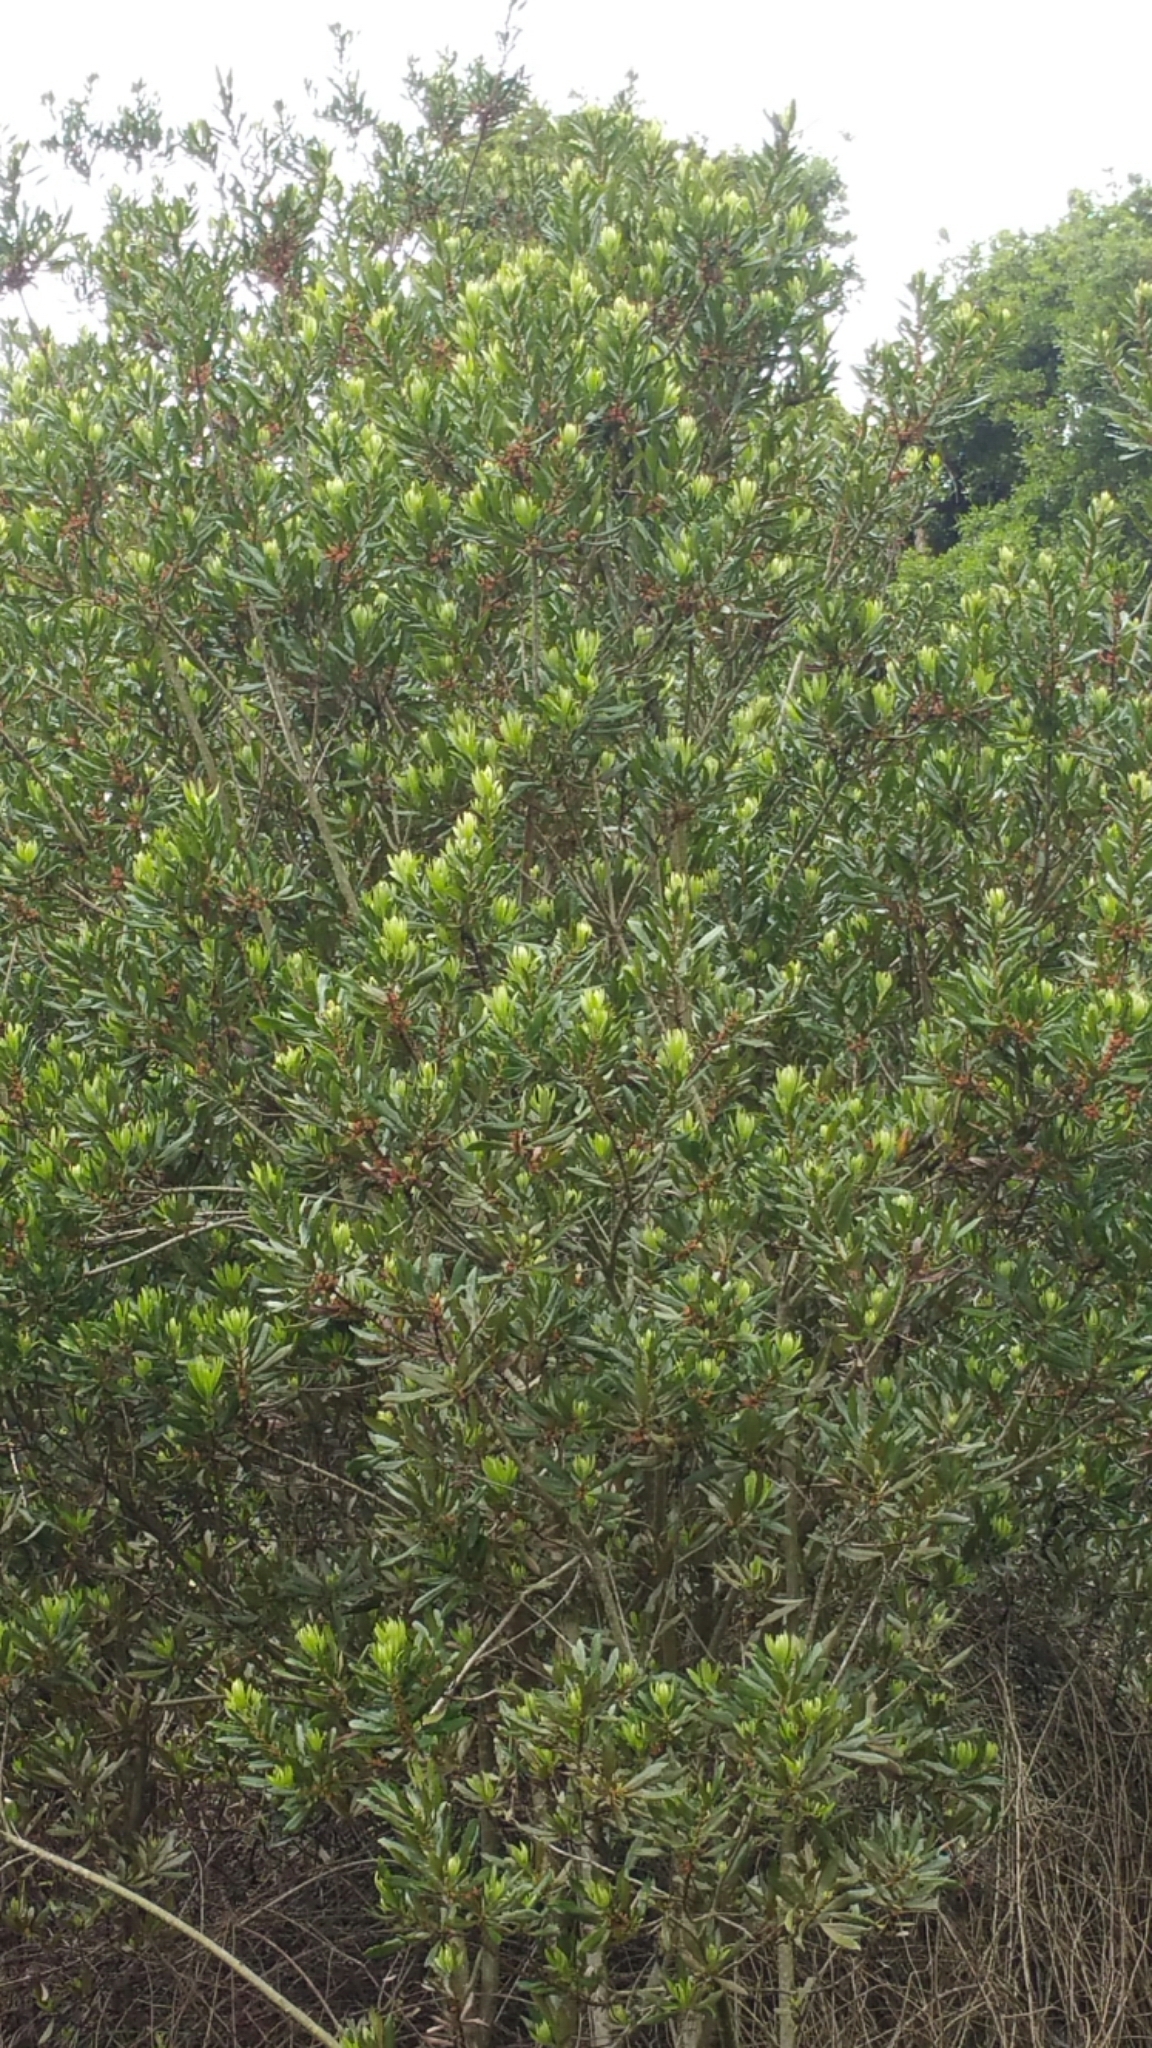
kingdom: Plantae
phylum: Tracheophyta
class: Magnoliopsida
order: Fagales
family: Myricaceae
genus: Morella
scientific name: Morella californica
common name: California wax-myrtle
